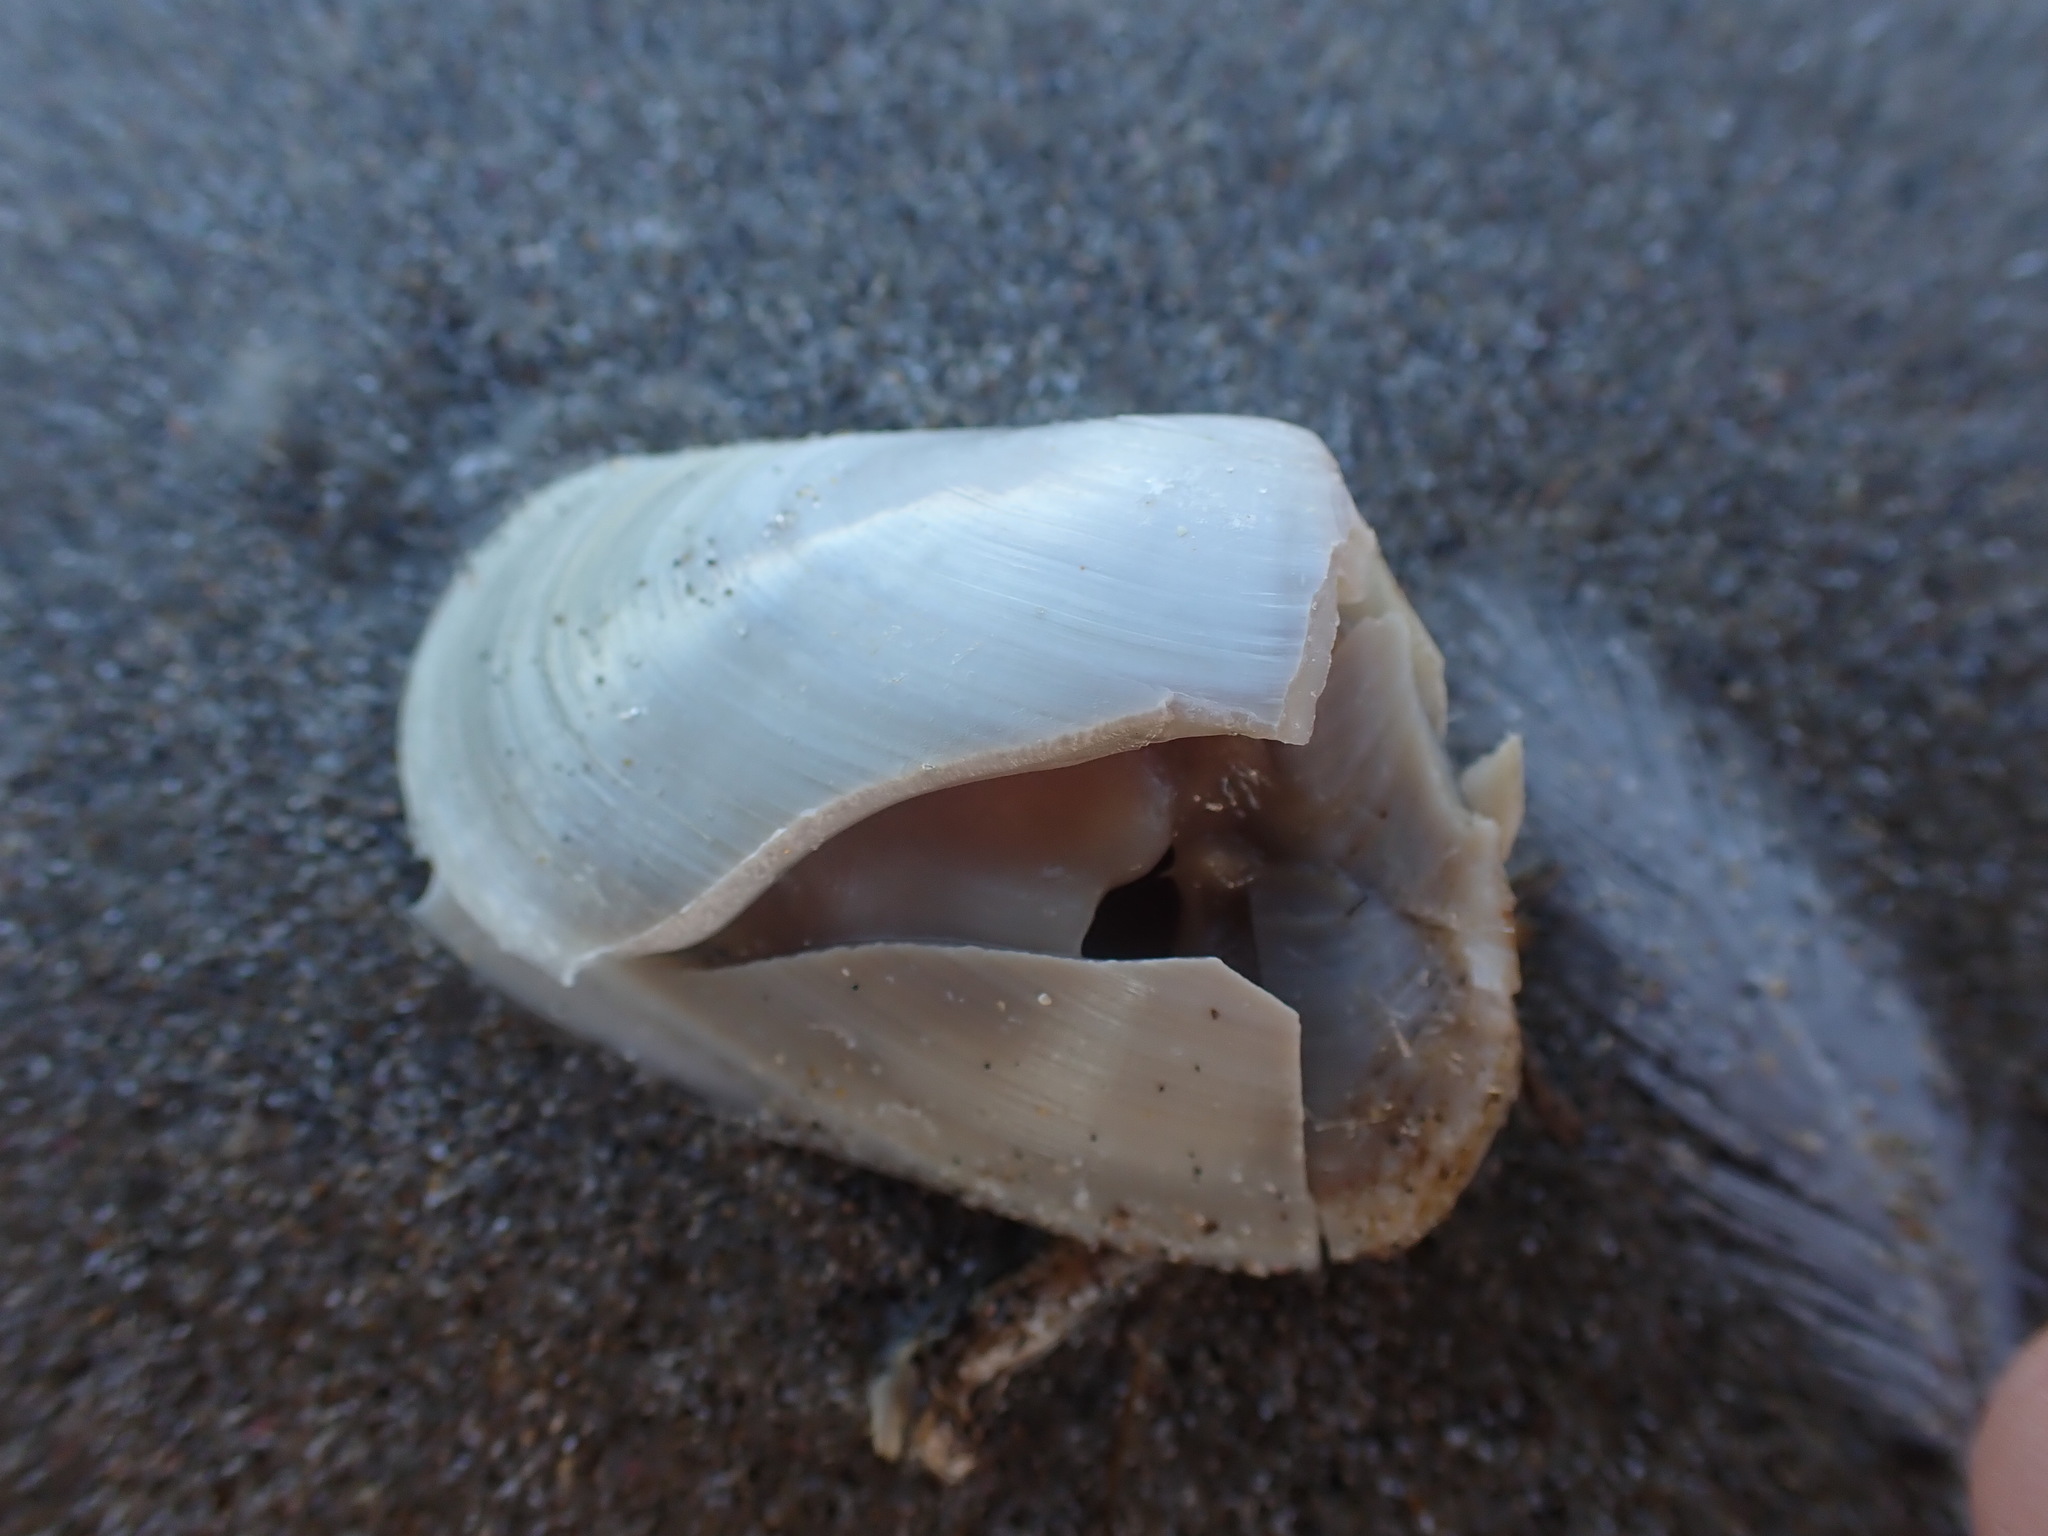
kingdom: Animalia
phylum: Mollusca
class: Bivalvia
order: Venerida
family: Mesodesmatidae
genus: Paphies
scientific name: Paphies subtriangulata
